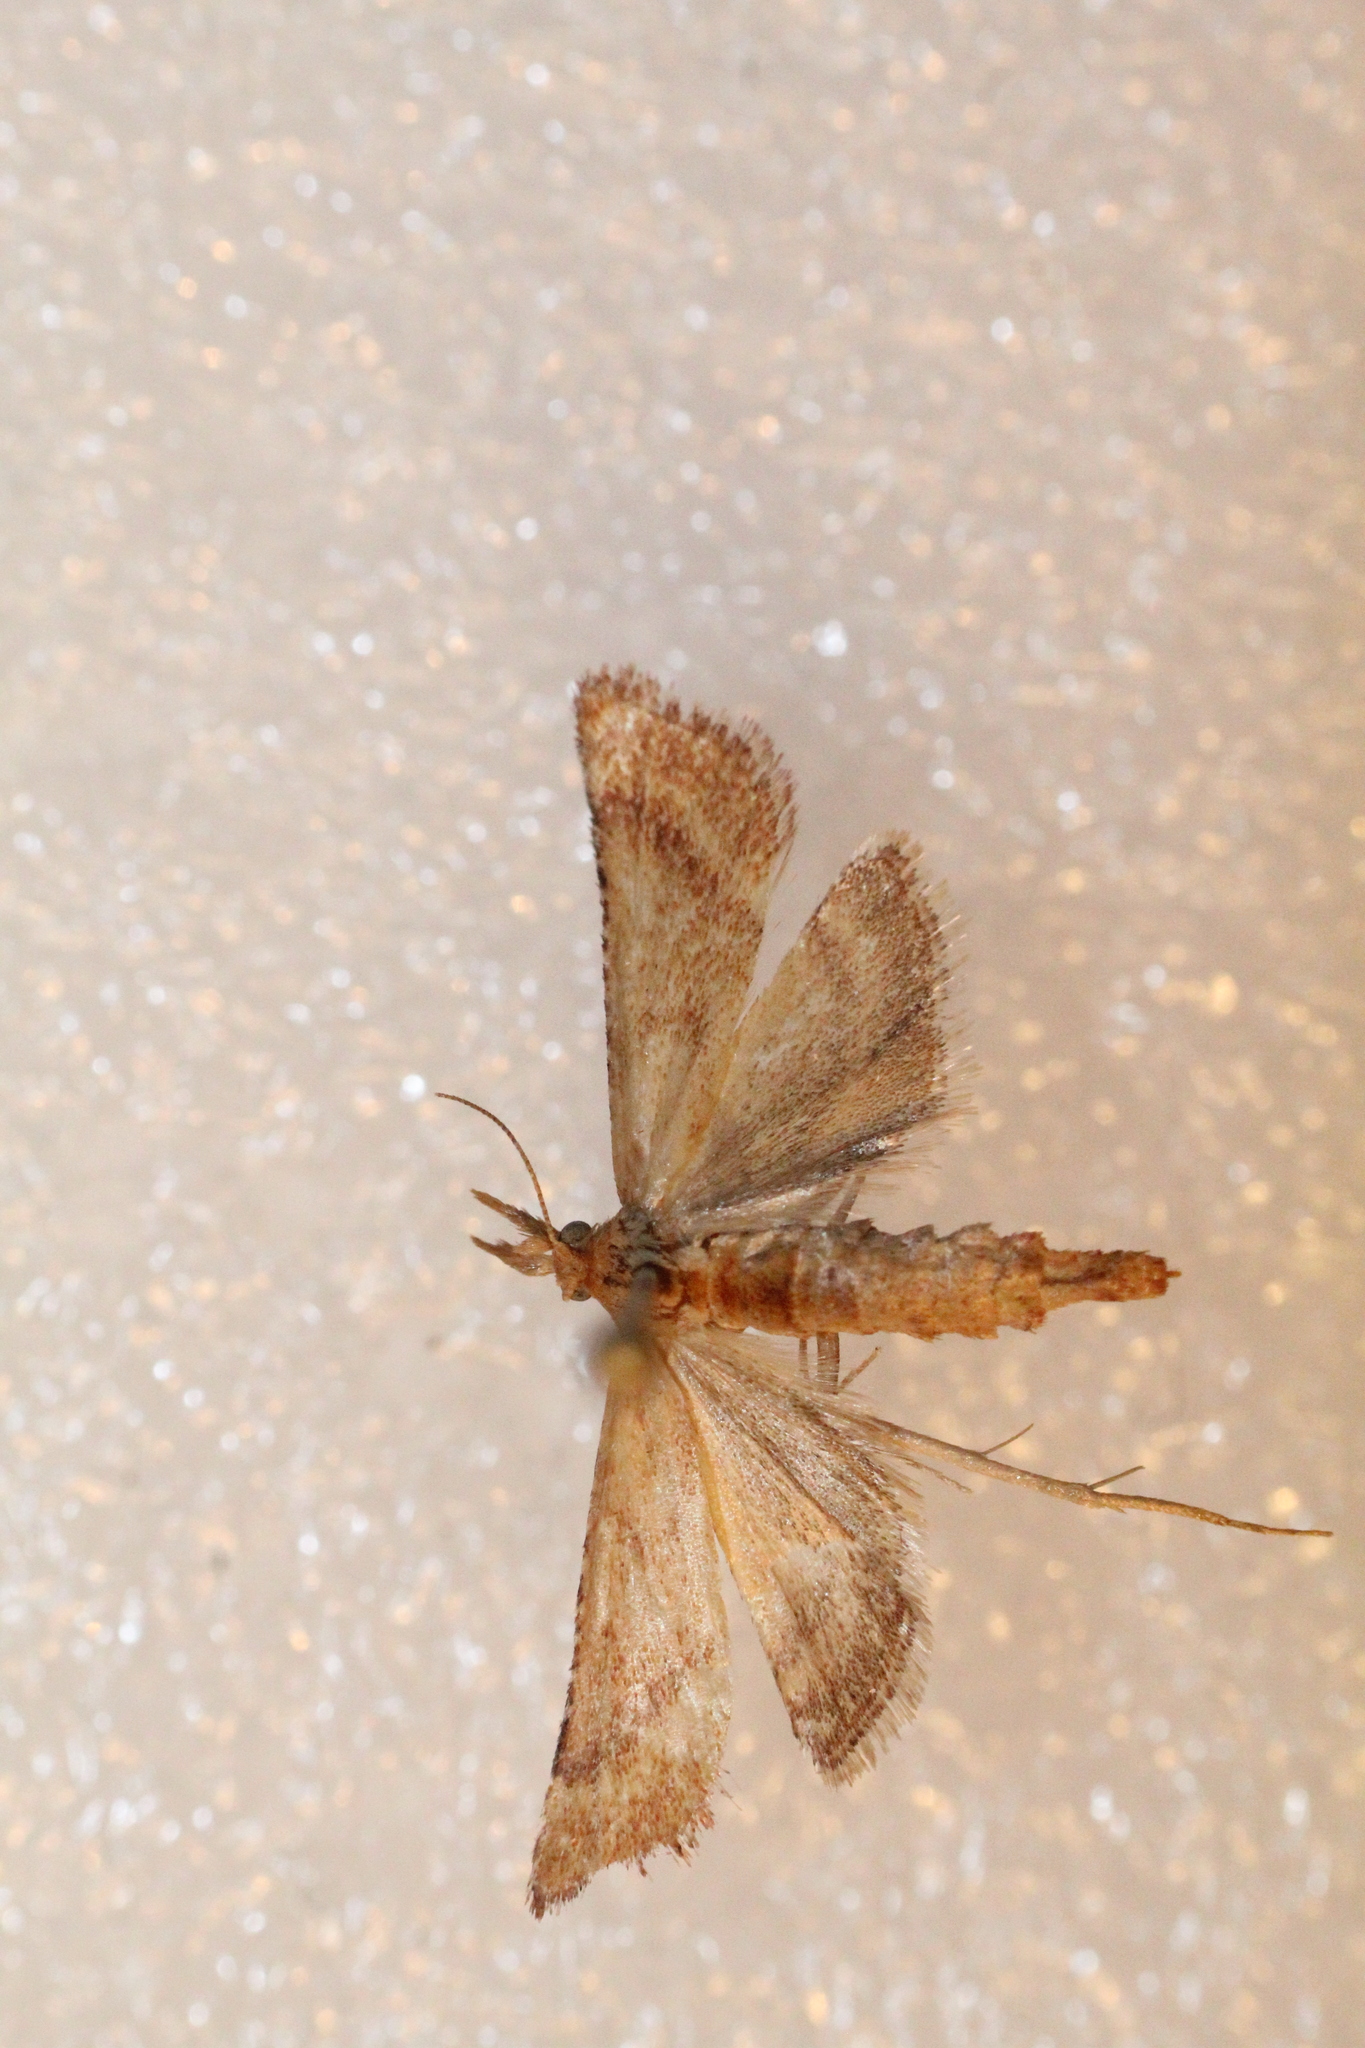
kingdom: Animalia
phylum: Arthropoda
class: Insecta
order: Lepidoptera
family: Pyralidae
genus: Synaphe
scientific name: Synaphe punctalis
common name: Long-legged tabby
